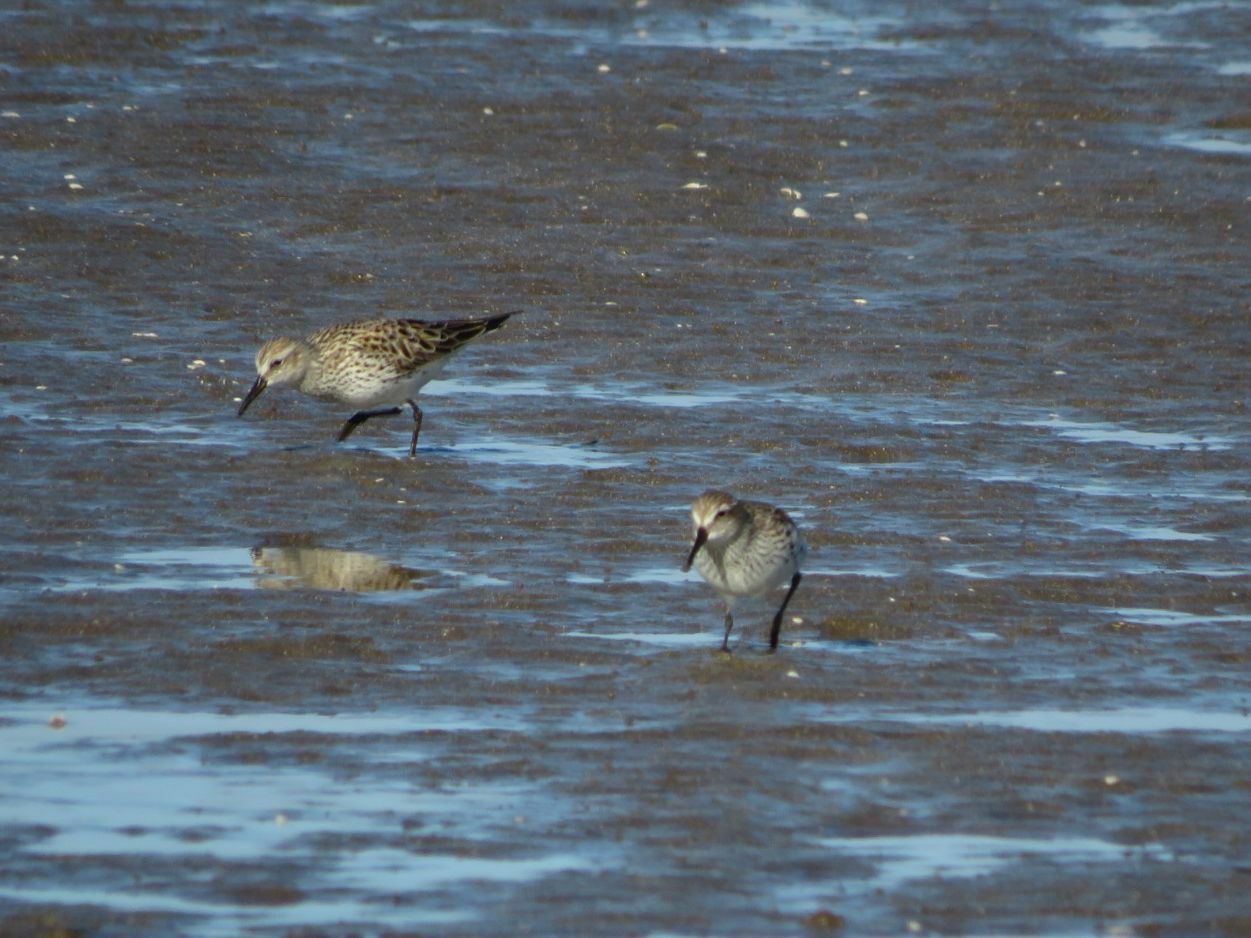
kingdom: Animalia
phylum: Chordata
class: Aves
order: Charadriiformes
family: Scolopacidae
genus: Calidris
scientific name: Calidris fuscicollis
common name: White-rumped sandpiper
